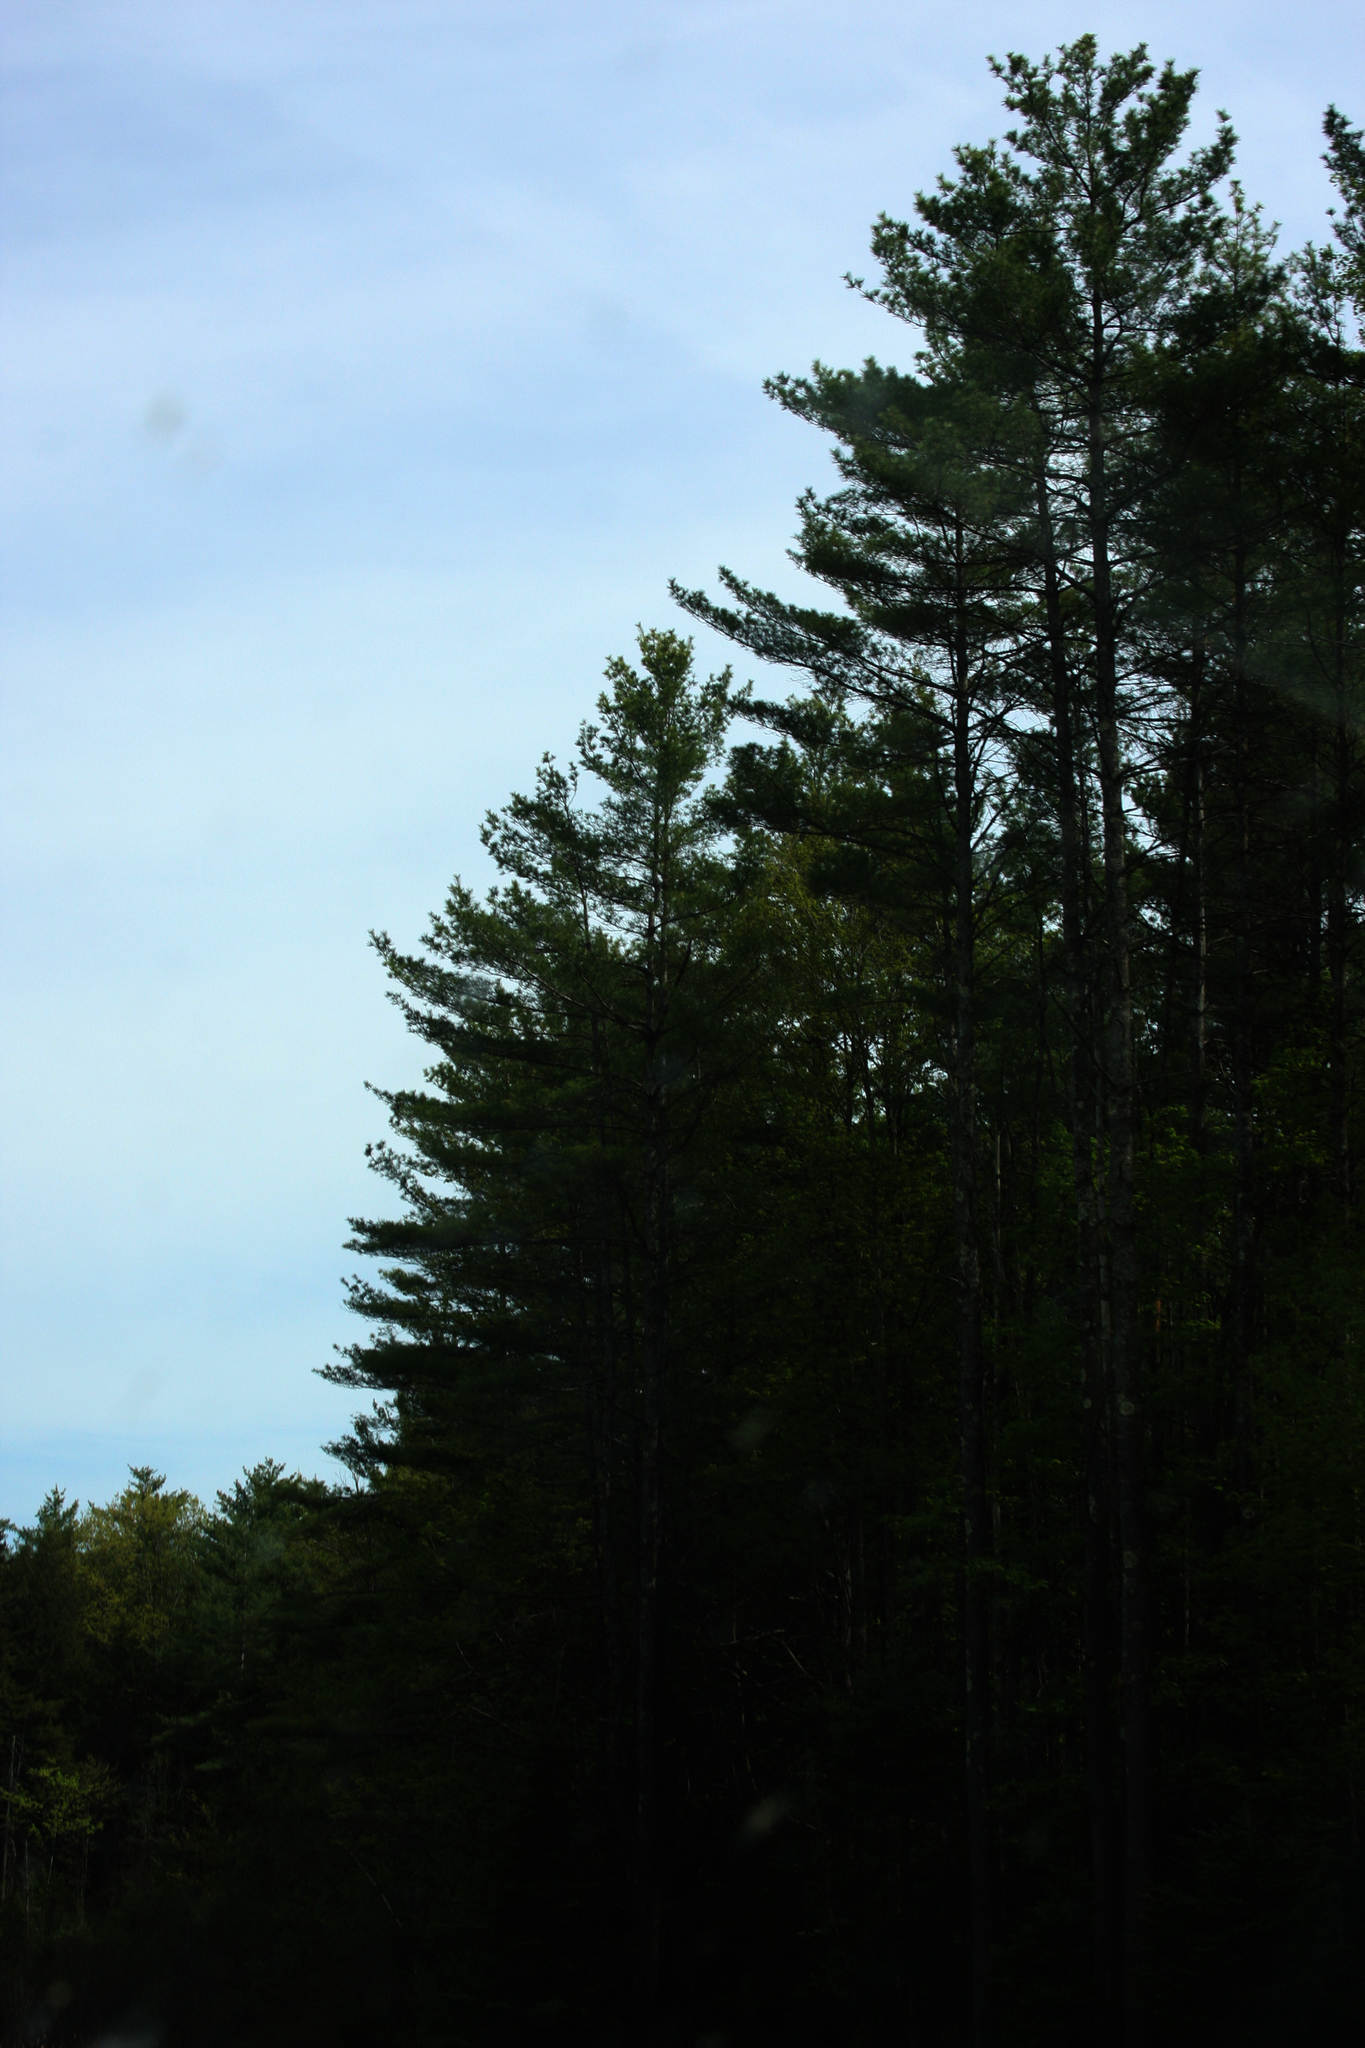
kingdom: Plantae
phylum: Tracheophyta
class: Pinopsida
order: Pinales
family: Pinaceae
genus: Pinus
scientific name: Pinus strobus
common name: Weymouth pine
